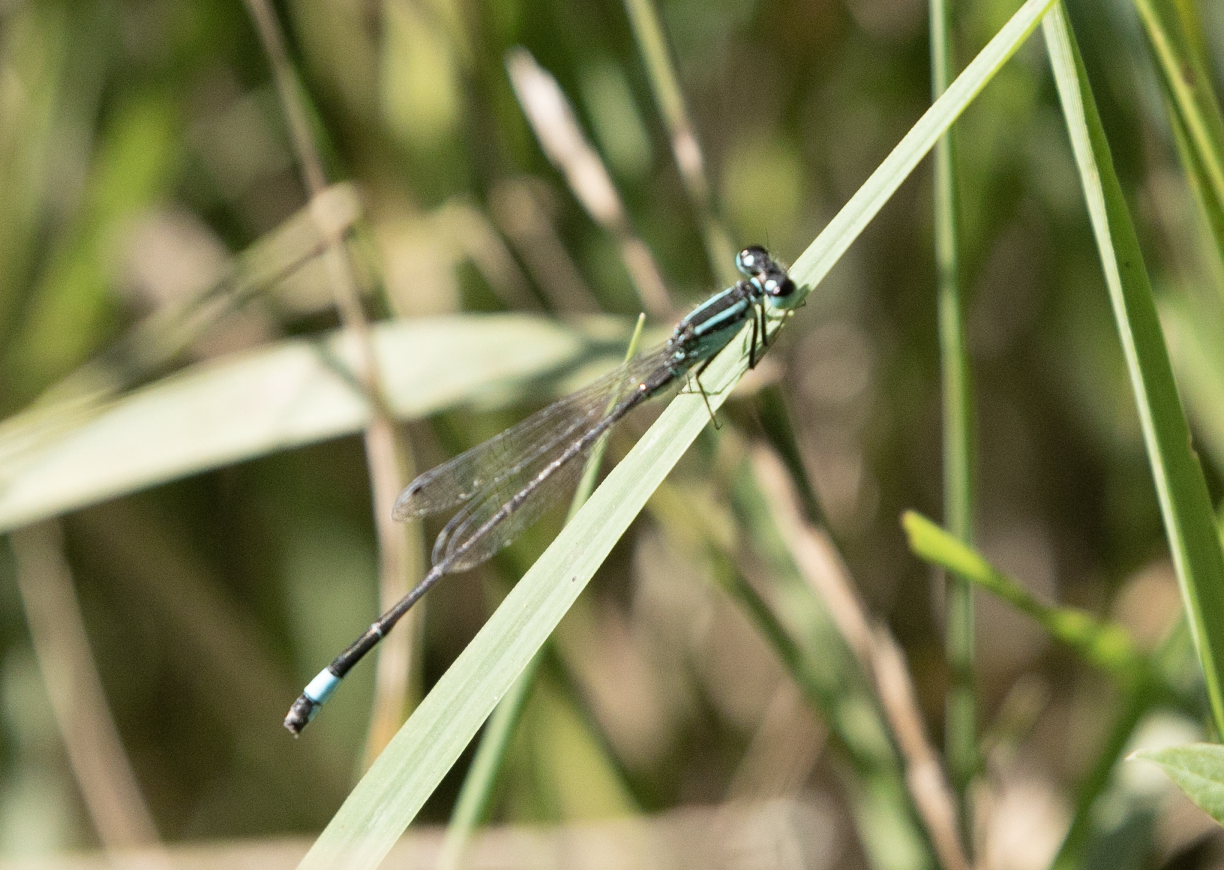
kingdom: Animalia
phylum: Arthropoda
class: Insecta
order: Odonata
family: Coenagrionidae
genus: Ischnura
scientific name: Ischnura elegans
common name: Blue-tailed damselfly
